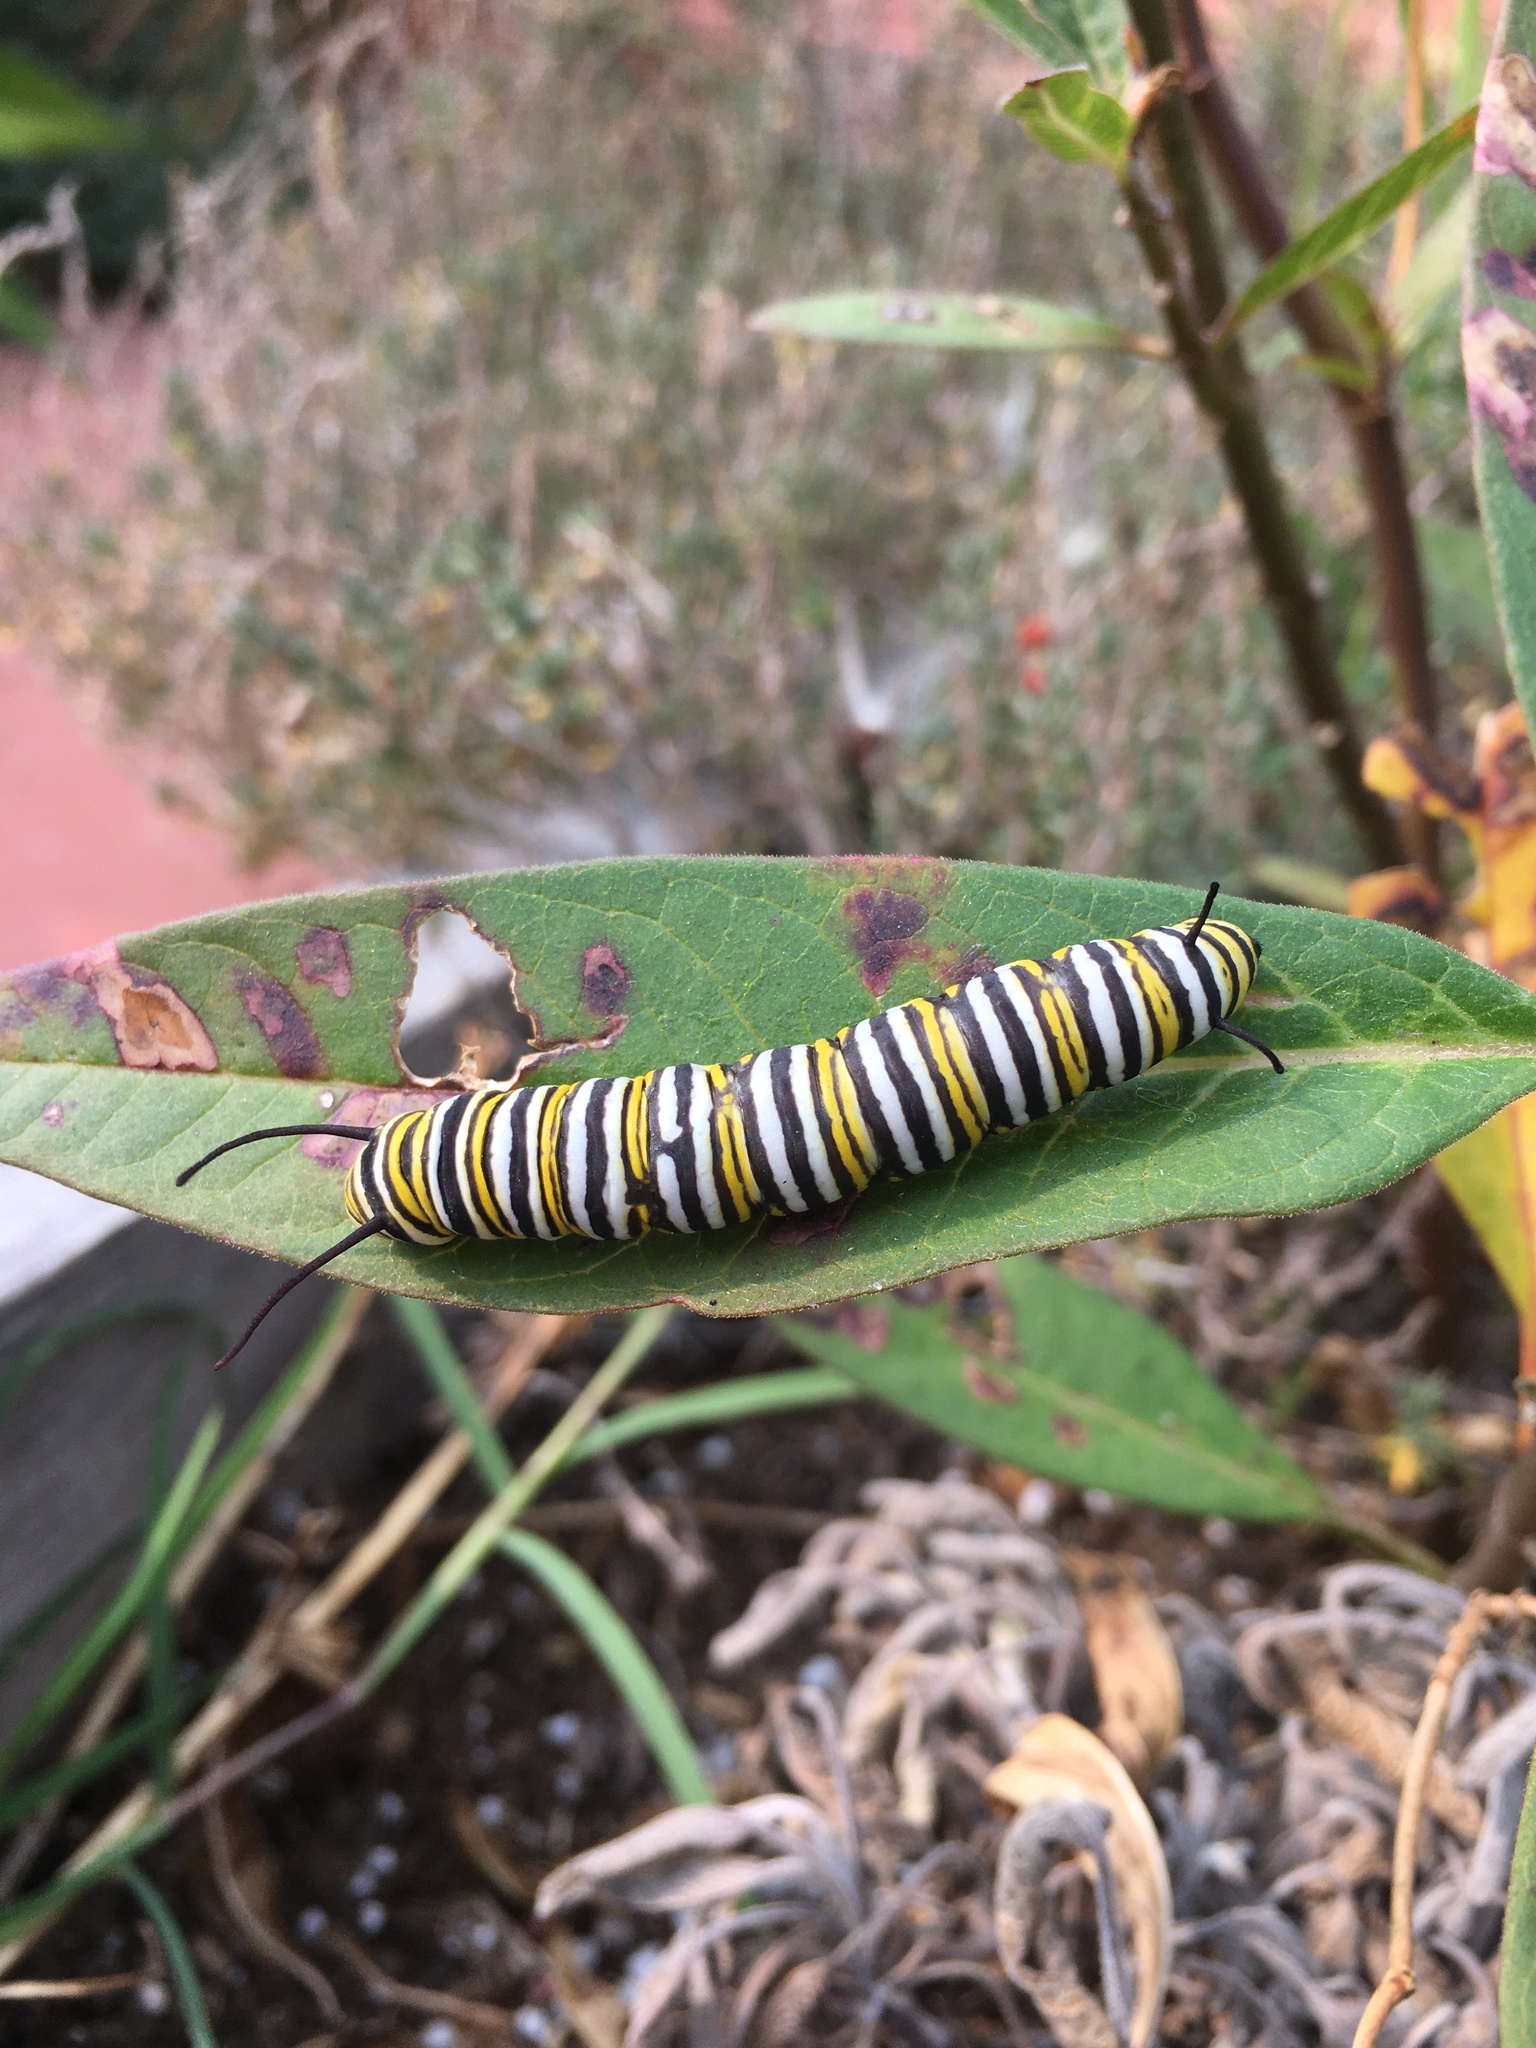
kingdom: Animalia
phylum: Arthropoda
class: Insecta
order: Lepidoptera
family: Nymphalidae
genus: Danaus
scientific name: Danaus plexippus
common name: Monarch
